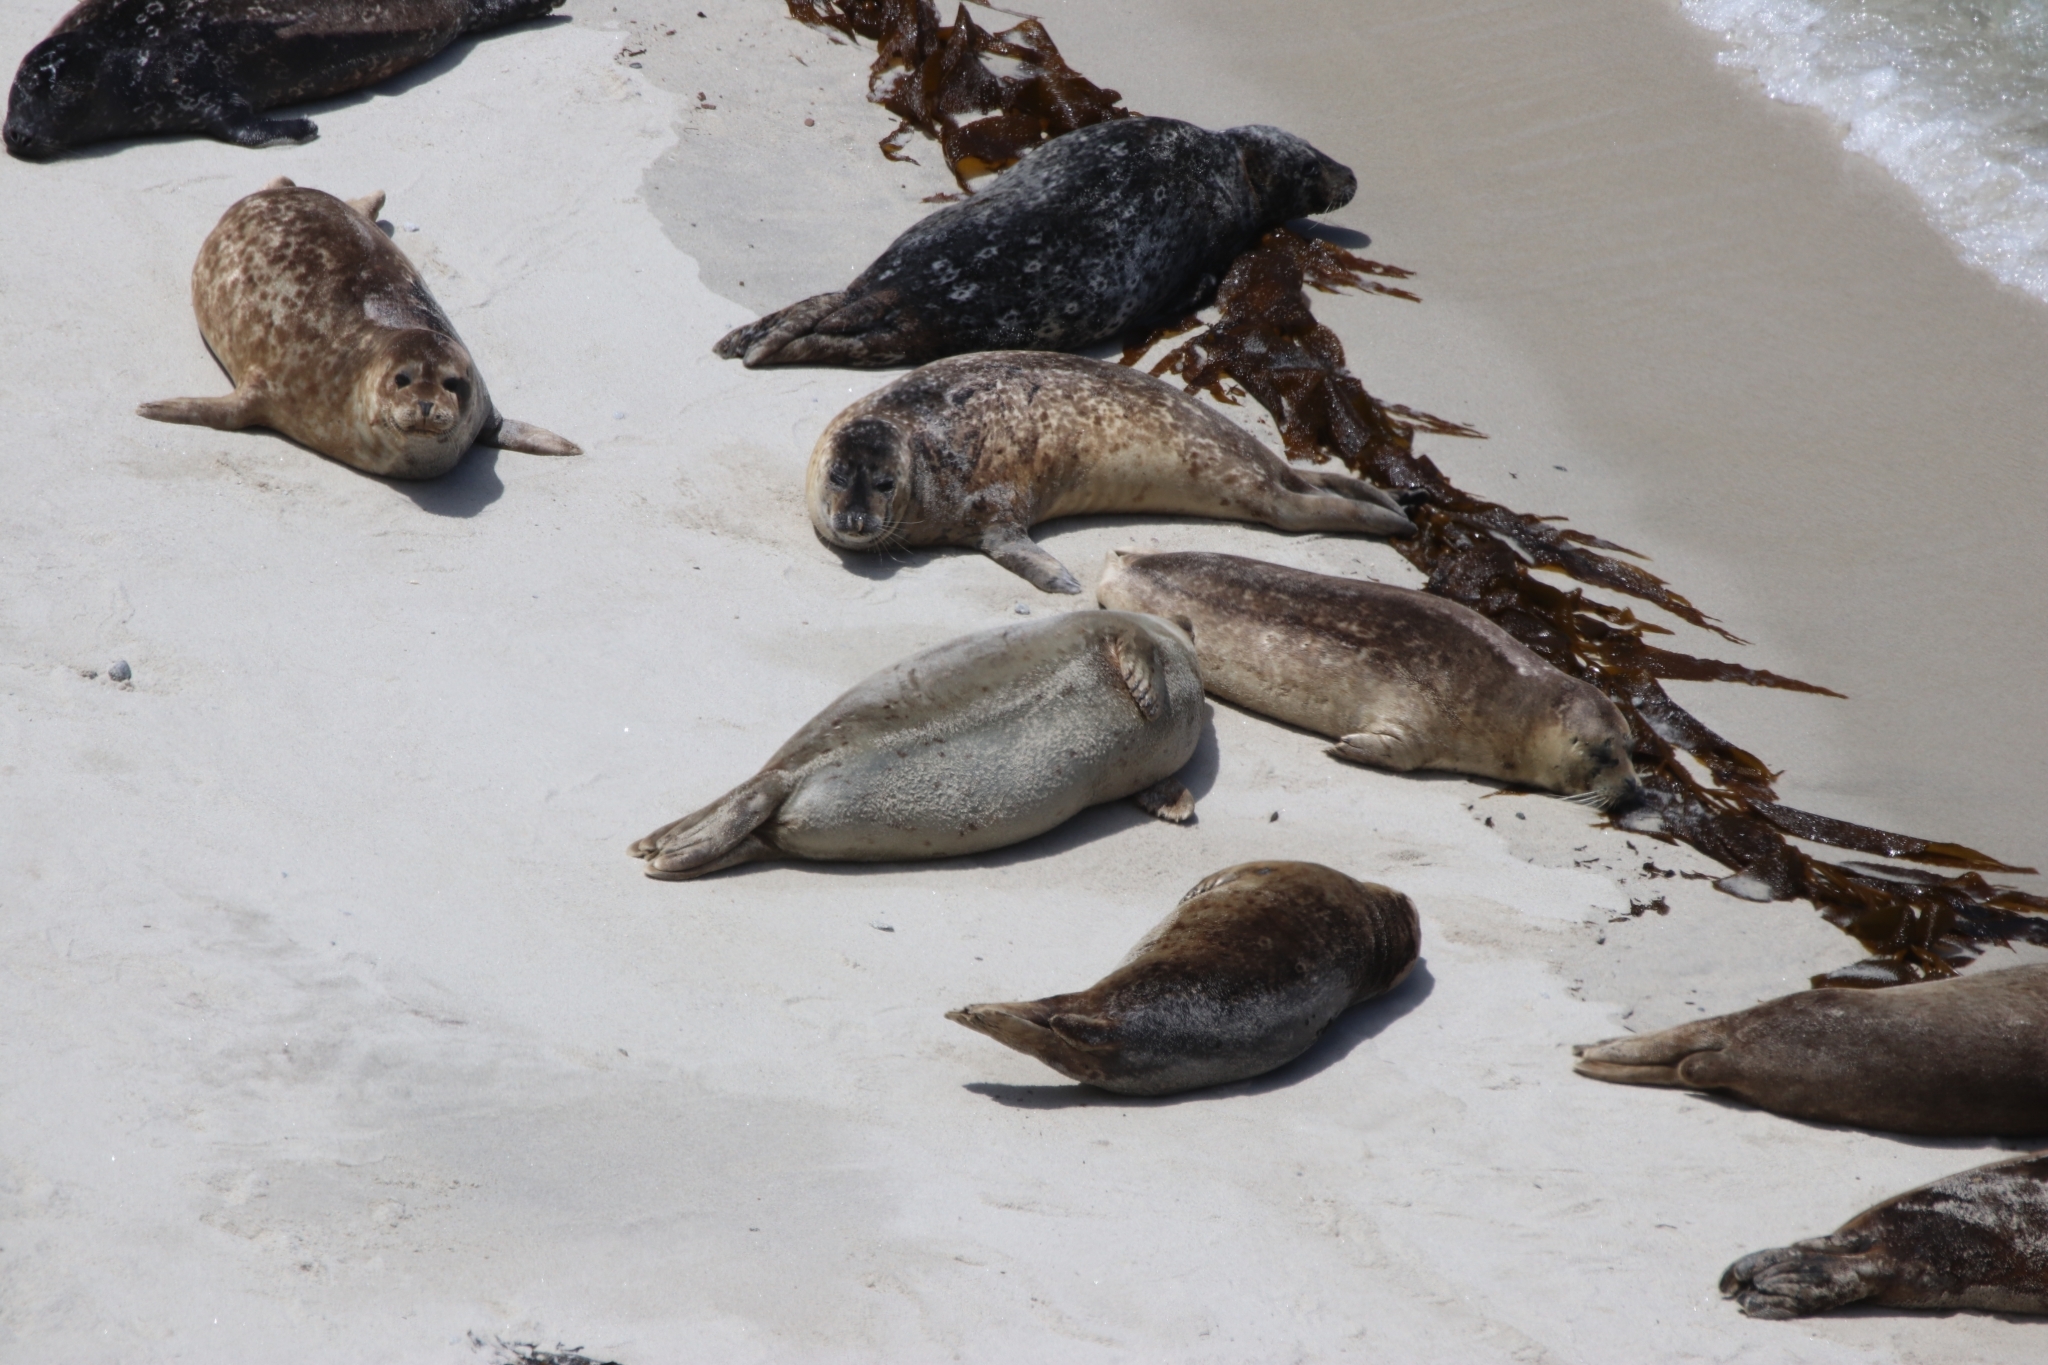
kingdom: Animalia
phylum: Chordata
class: Mammalia
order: Carnivora
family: Phocidae
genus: Phoca
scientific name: Phoca vitulina
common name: Harbor seal
